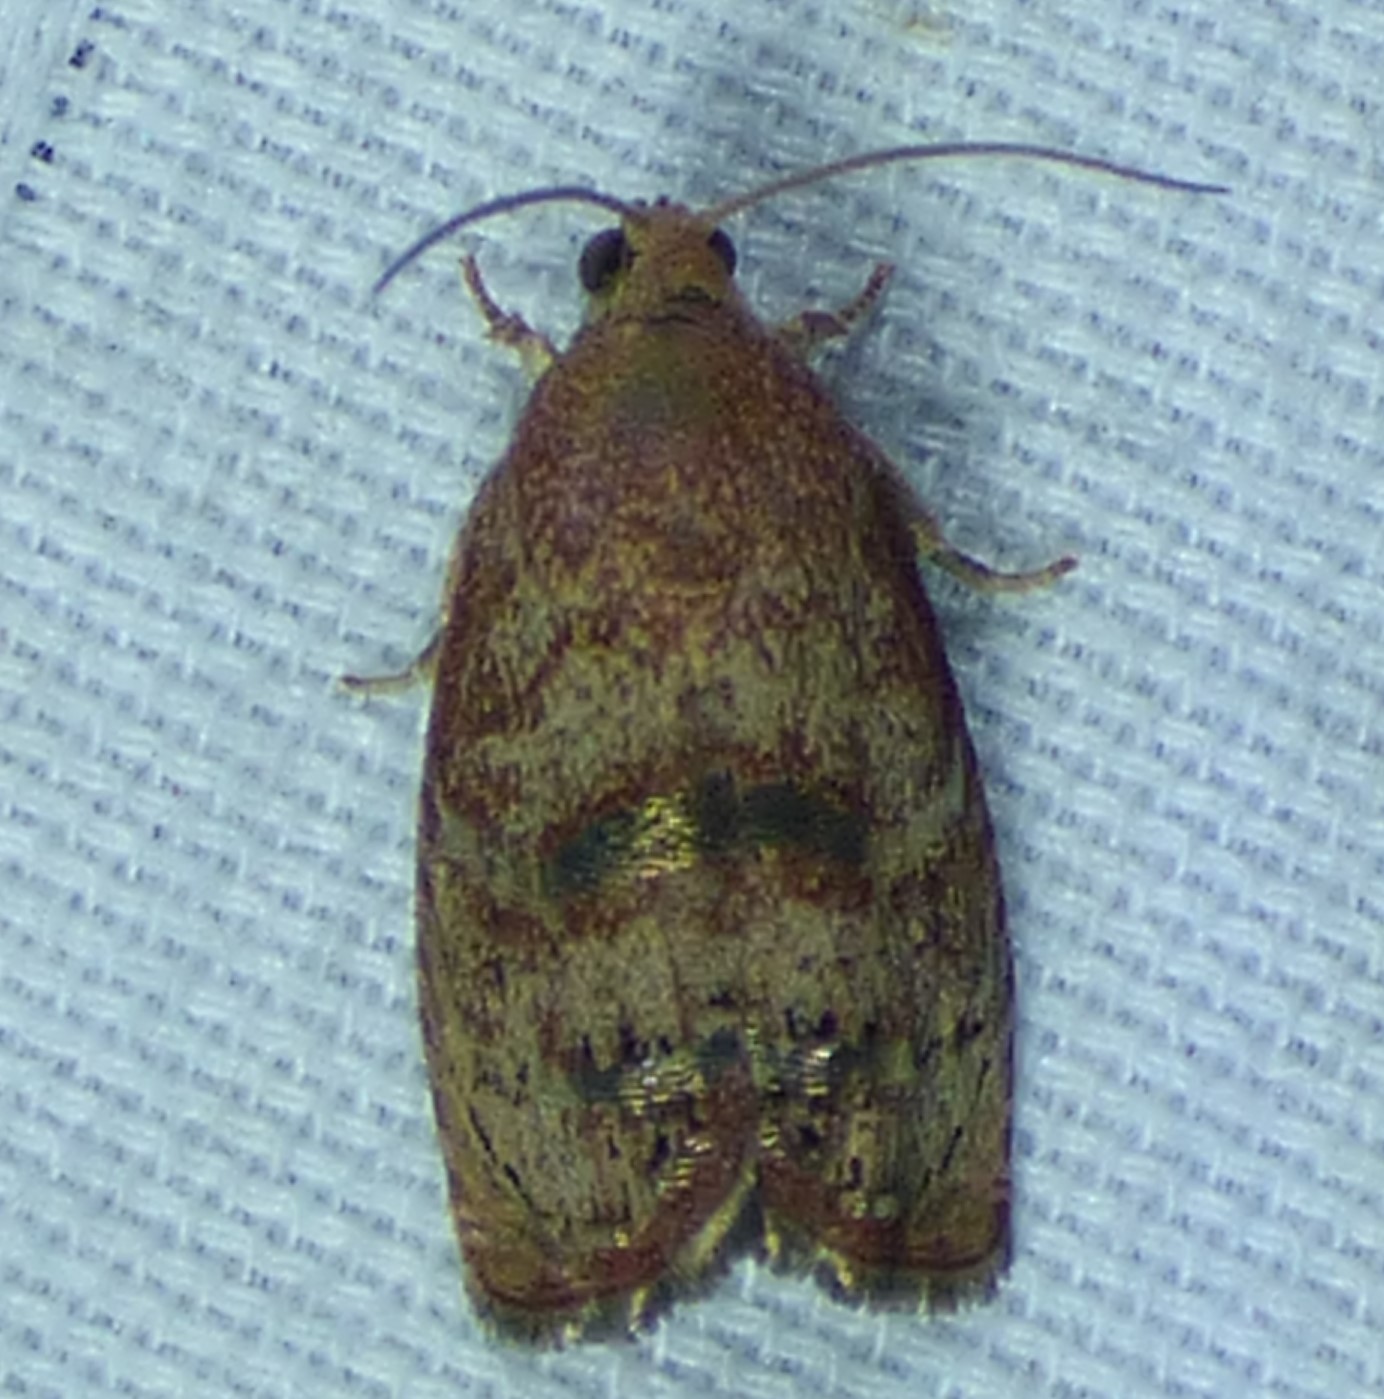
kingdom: Animalia
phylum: Arthropoda
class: Insecta
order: Lepidoptera
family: Tortricidae
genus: Cydia
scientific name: Cydia latiferreana
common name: Filbertworm moth
